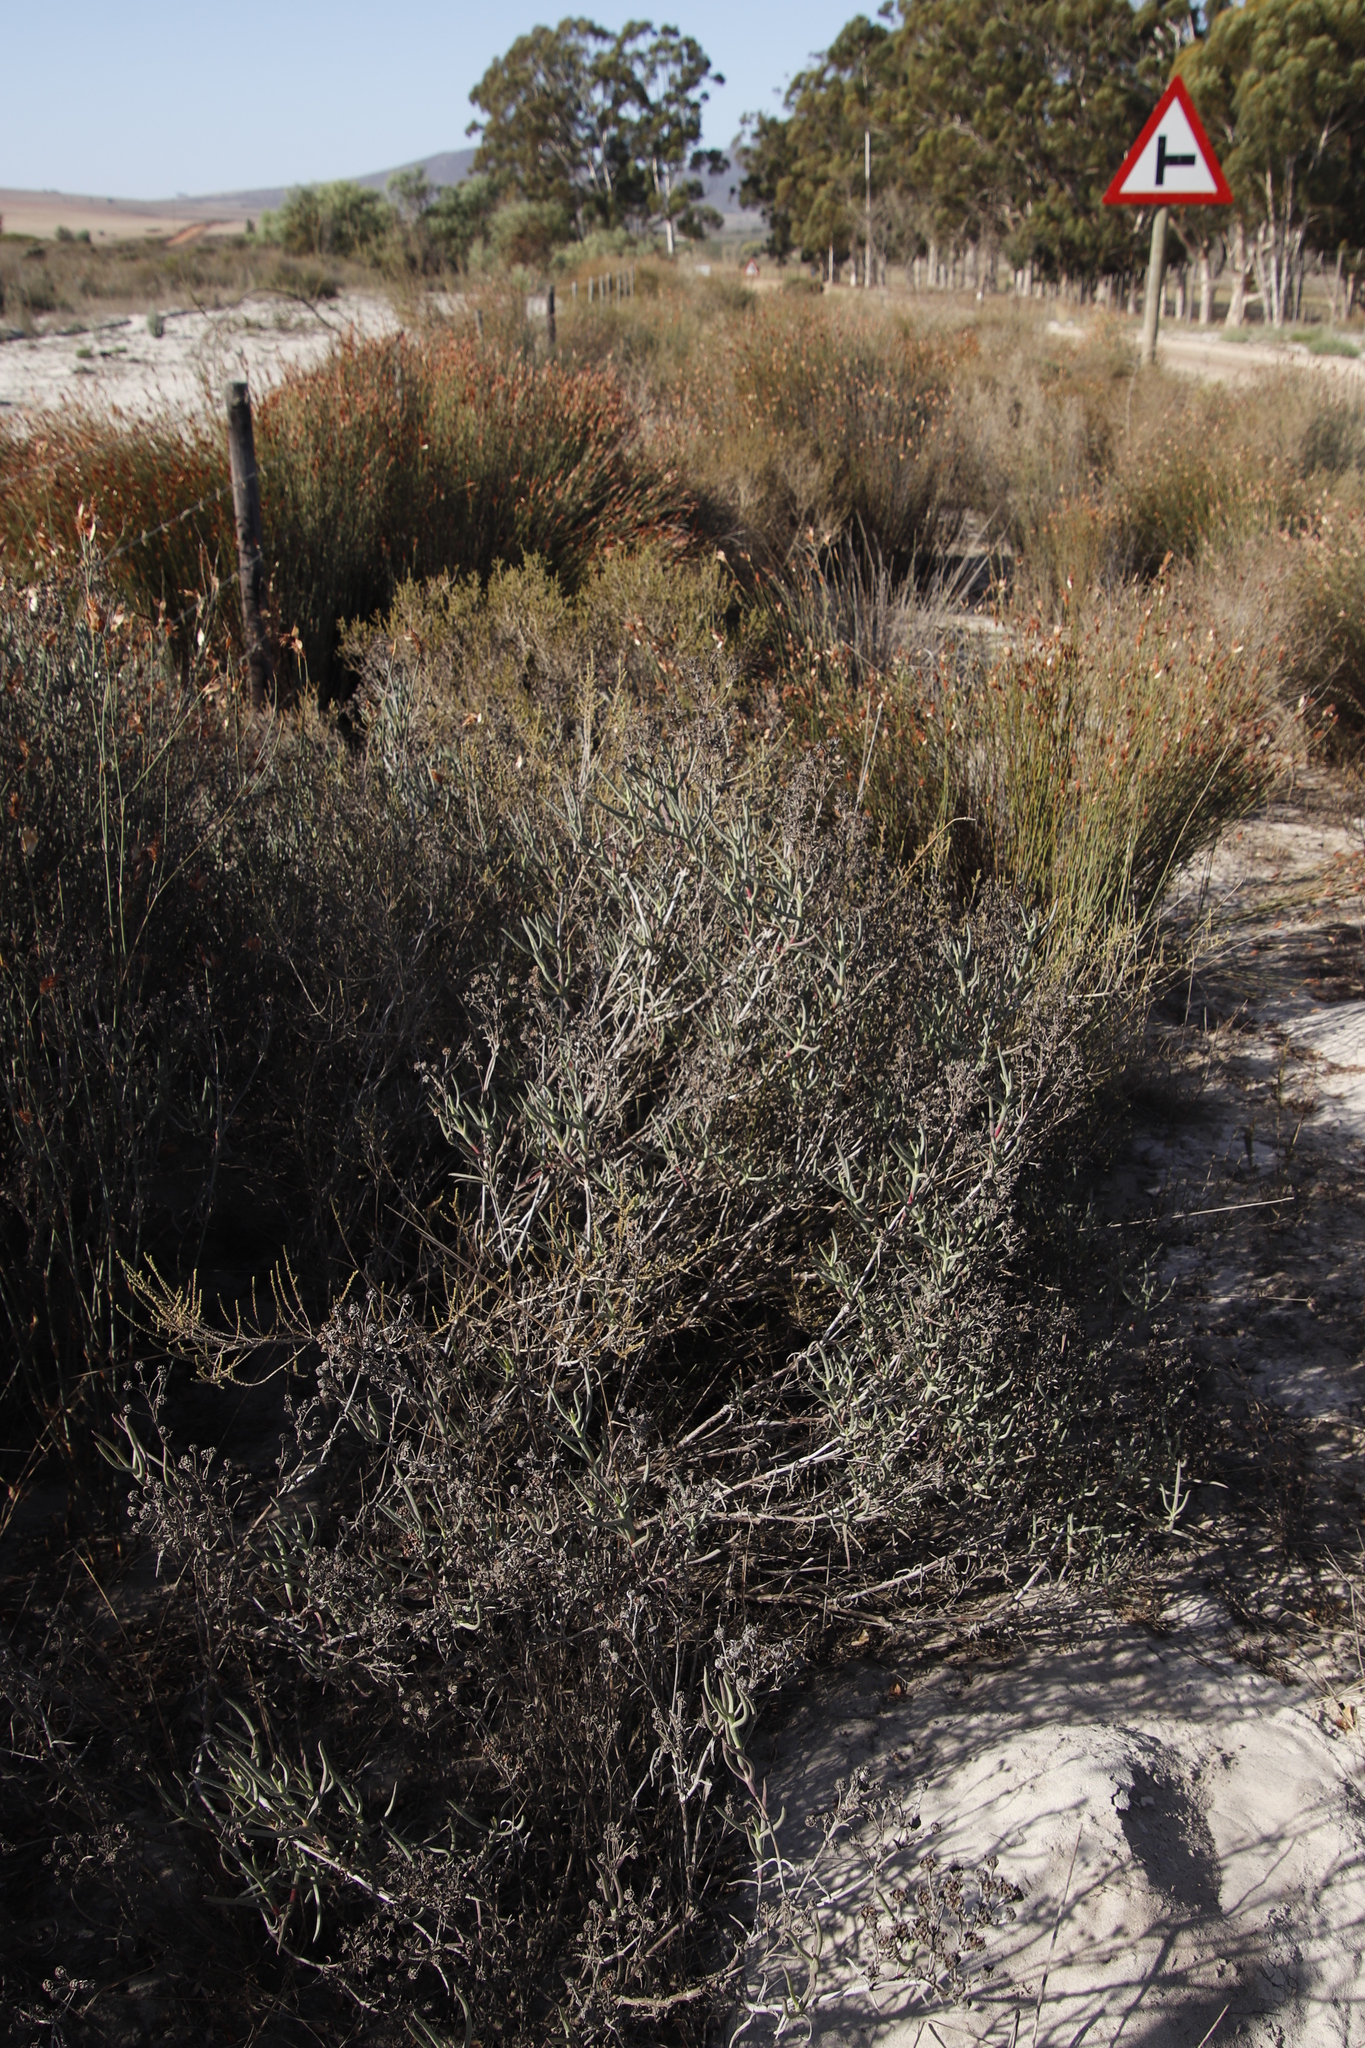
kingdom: Plantae
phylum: Tracheophyta
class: Magnoliopsida
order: Caryophyllales
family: Aizoaceae
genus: Ruschia
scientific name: Ruschia tecta
